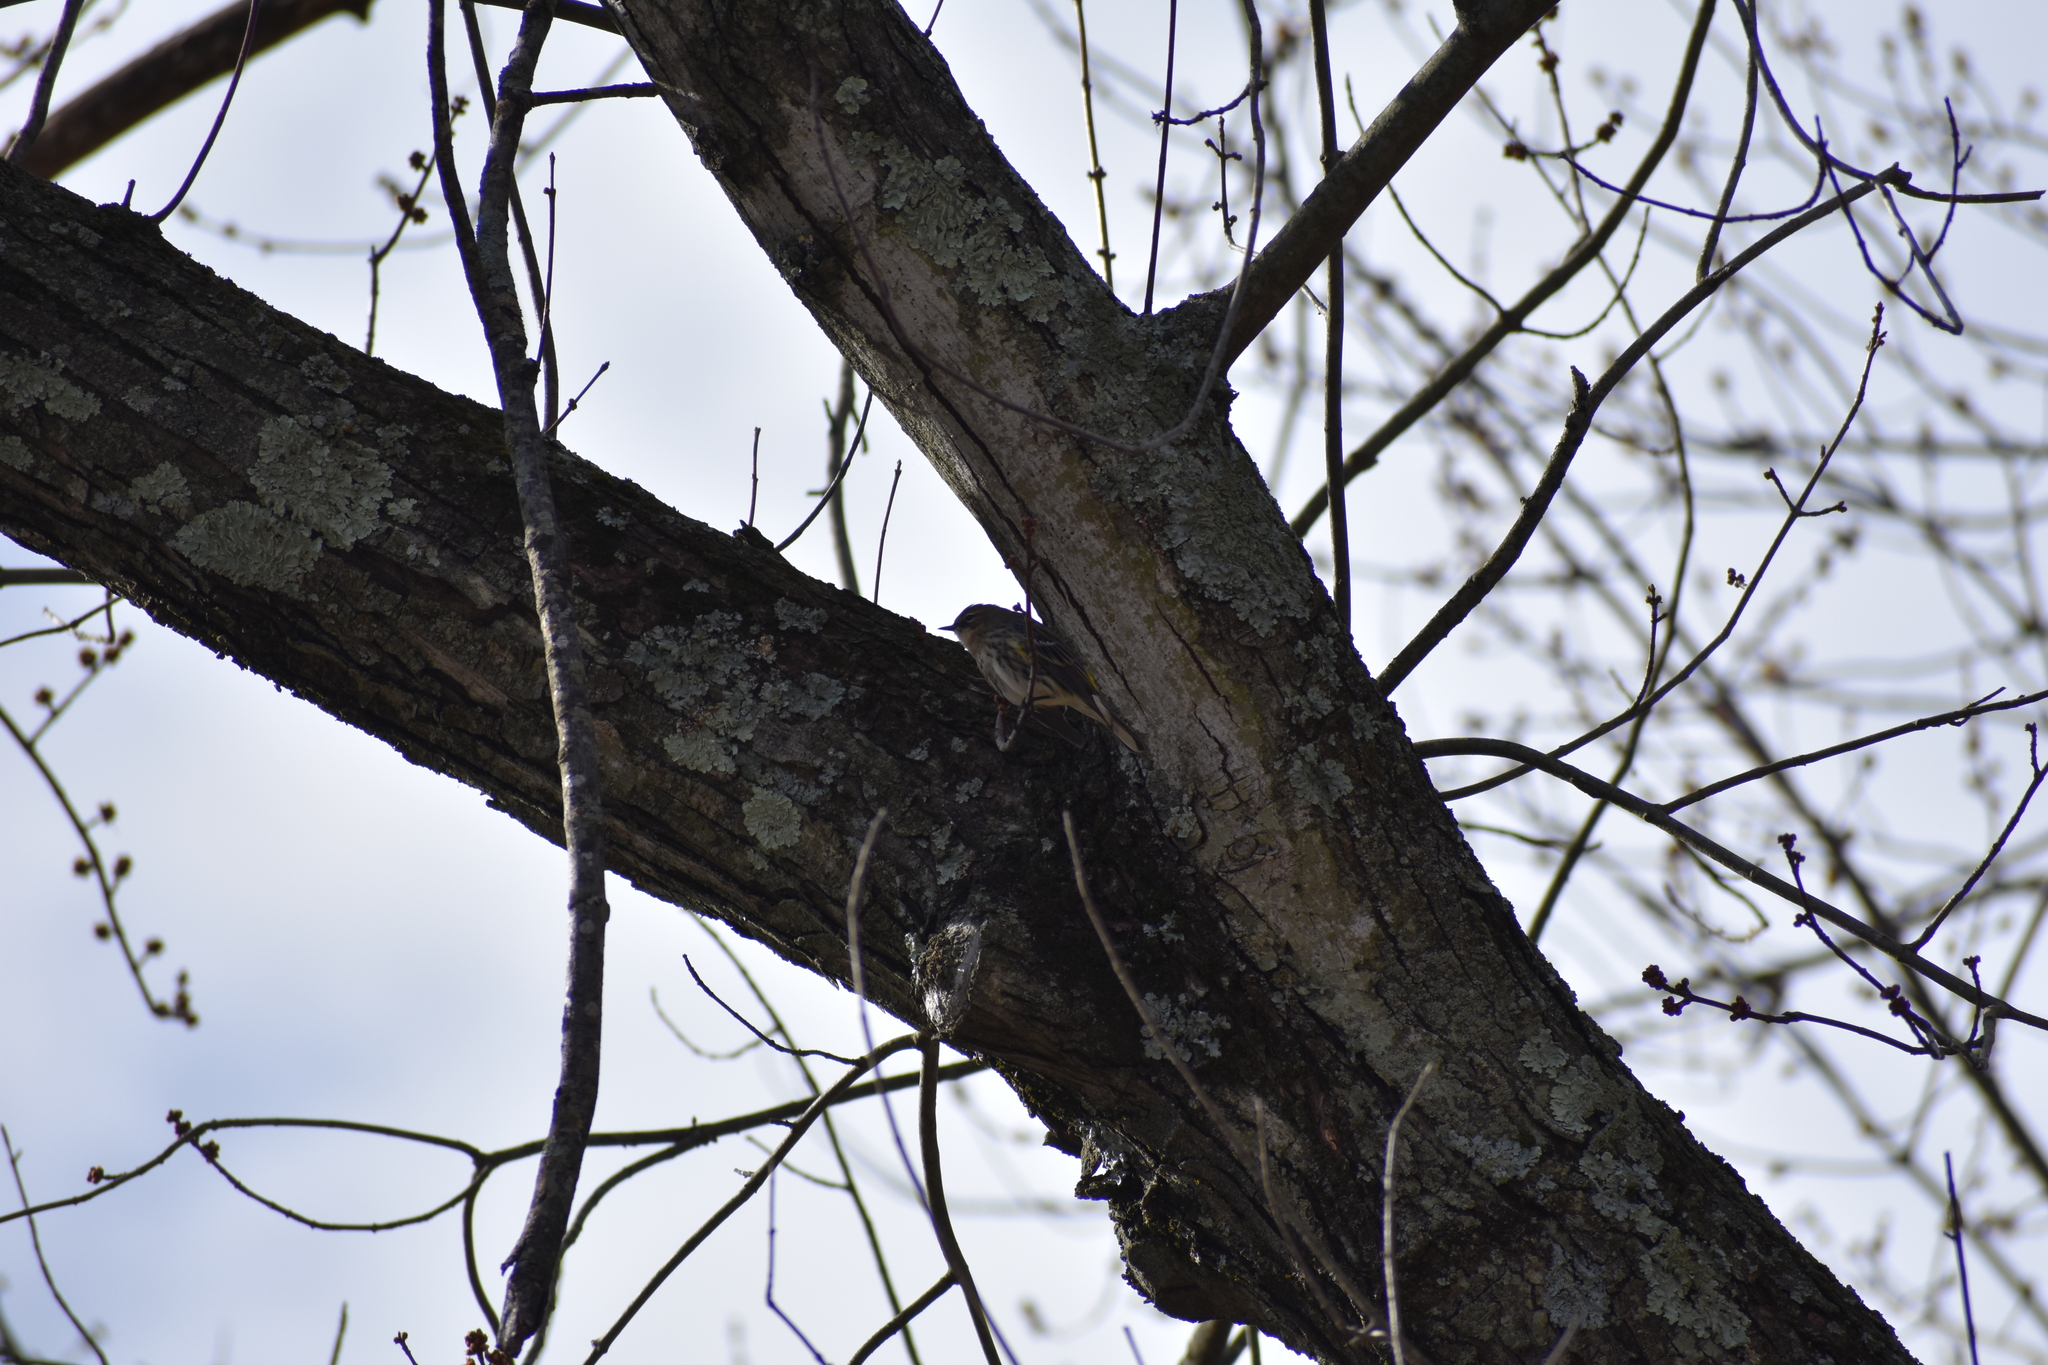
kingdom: Animalia
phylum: Chordata
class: Aves
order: Passeriformes
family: Parulidae
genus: Setophaga
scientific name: Setophaga coronata
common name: Myrtle warbler
